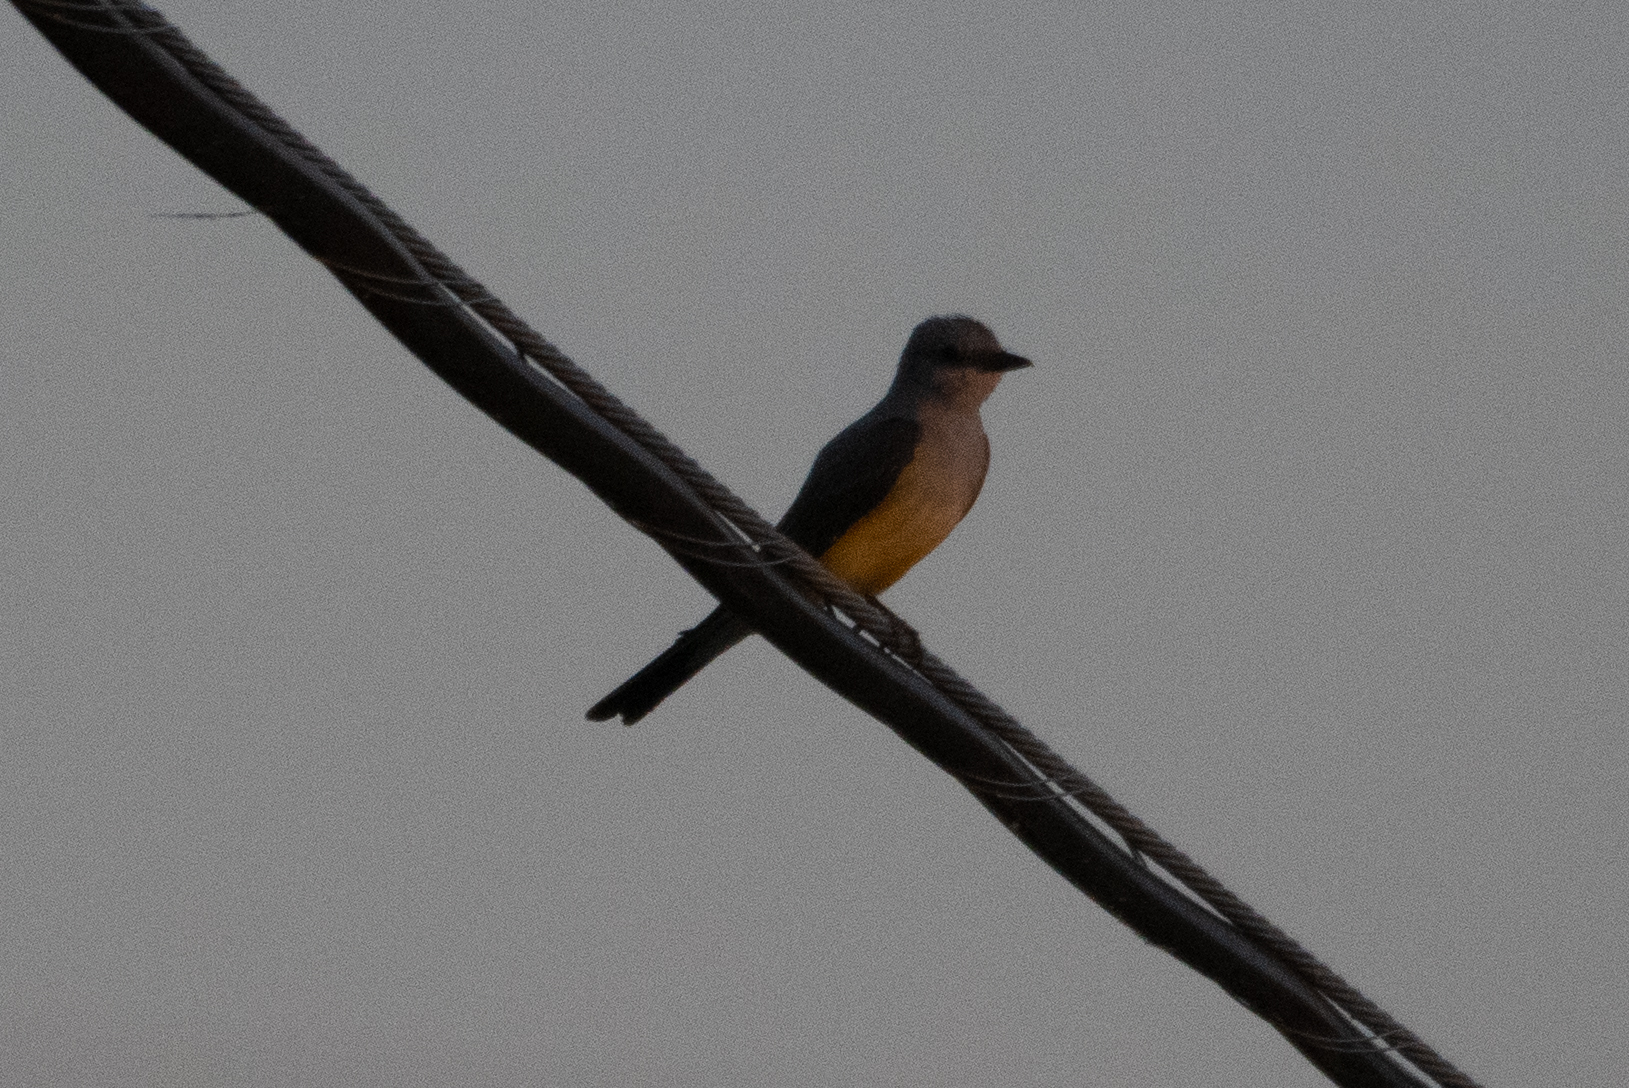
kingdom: Animalia
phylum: Chordata
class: Aves
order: Passeriformes
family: Tyrannidae
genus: Tyrannus
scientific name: Tyrannus verticalis
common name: Western kingbird
